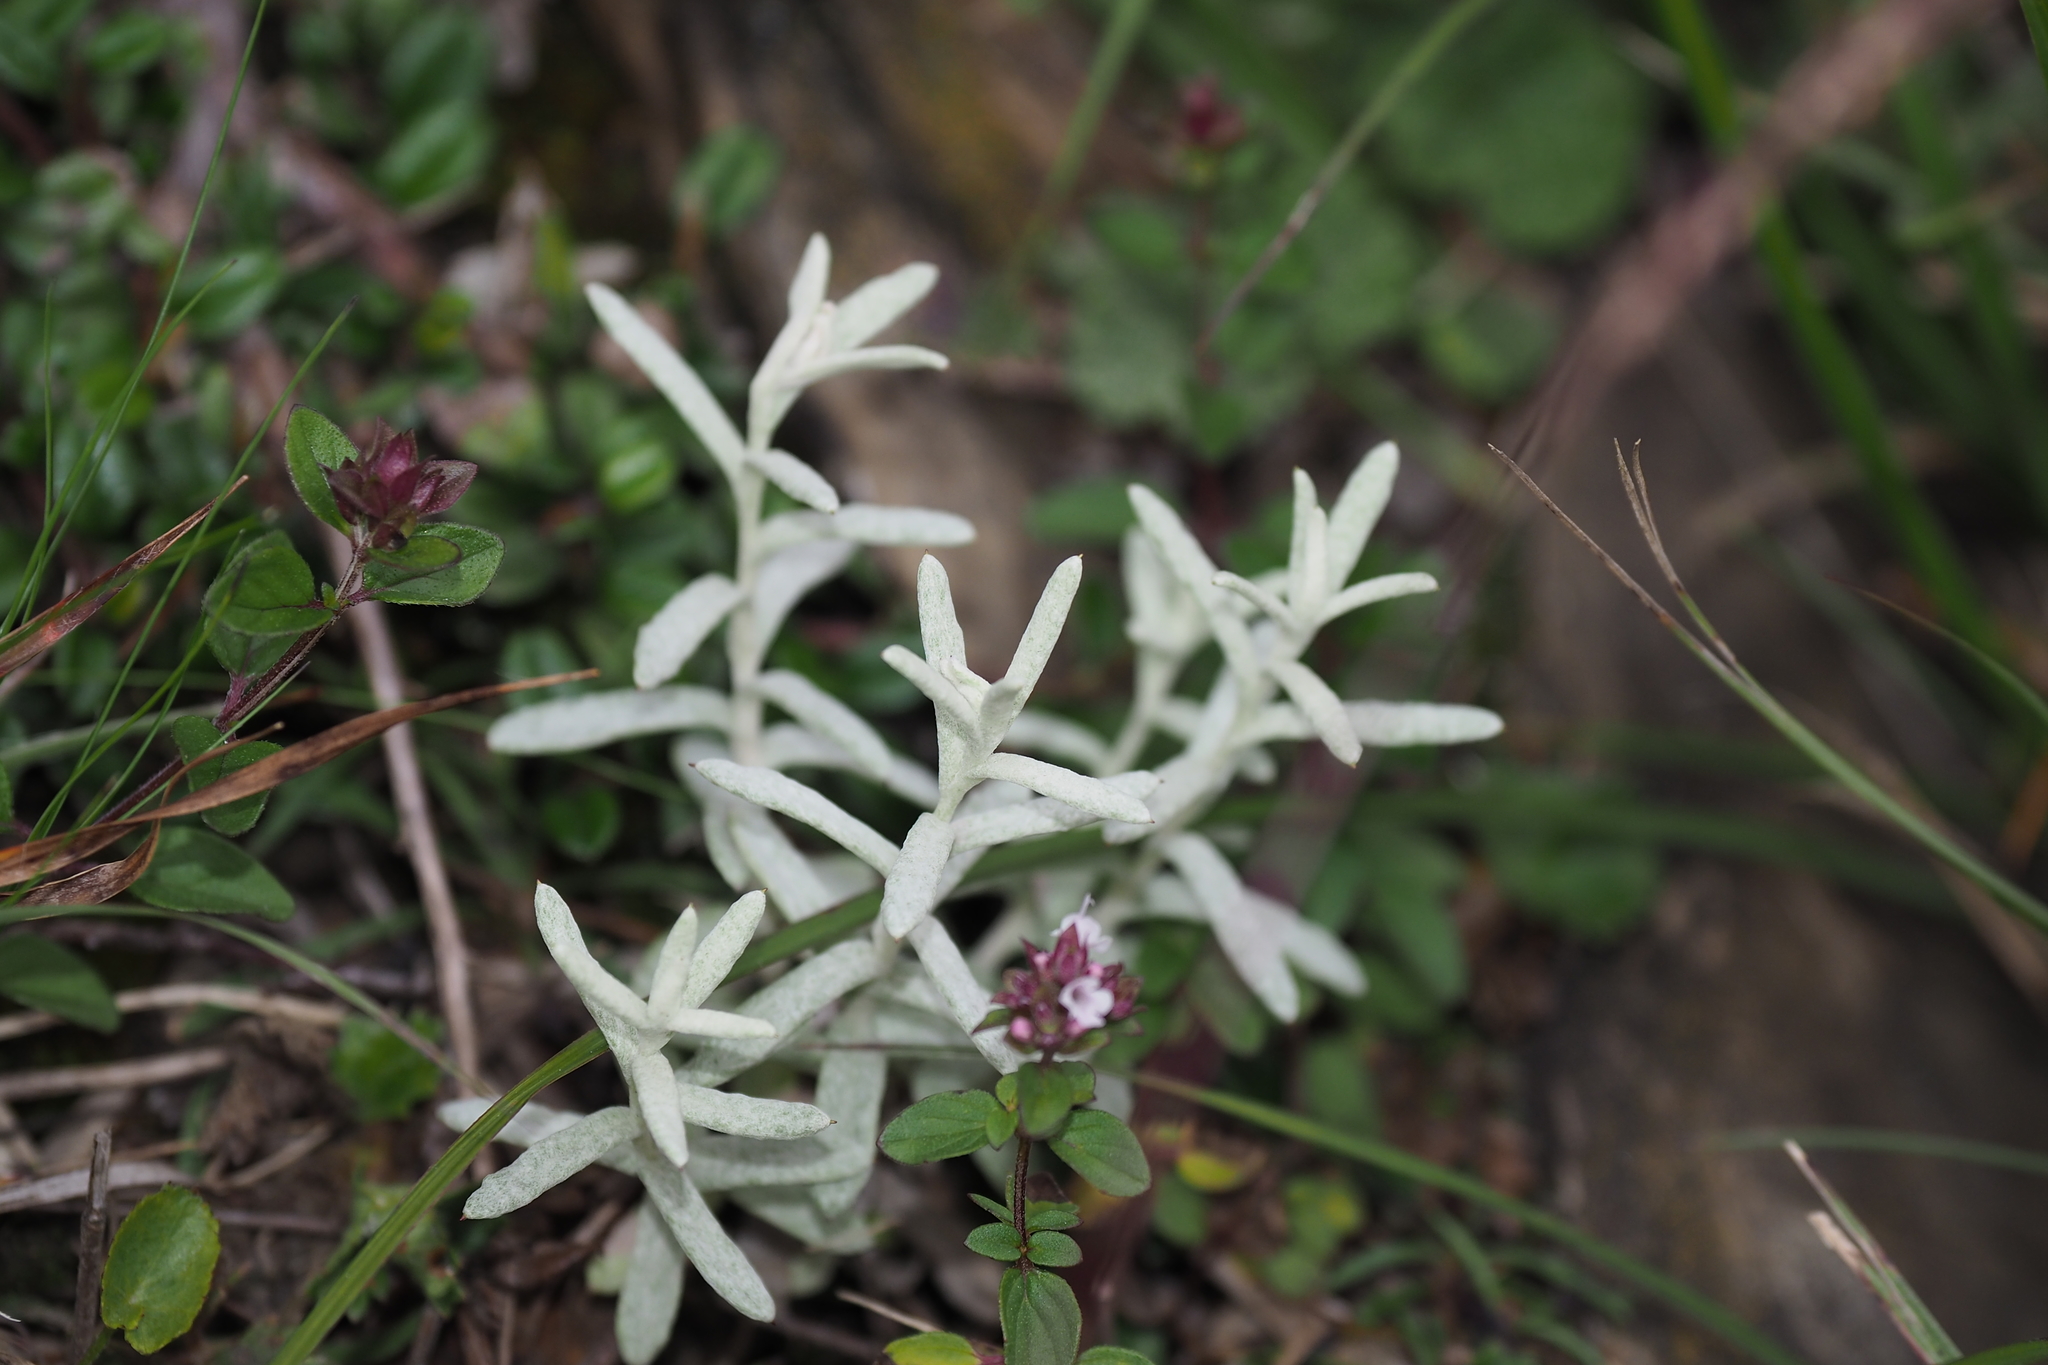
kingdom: Plantae
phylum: Tracheophyta
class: Magnoliopsida
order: Asterales
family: Asteraceae
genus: Anaphalis
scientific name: Anaphalis morrisonicola
